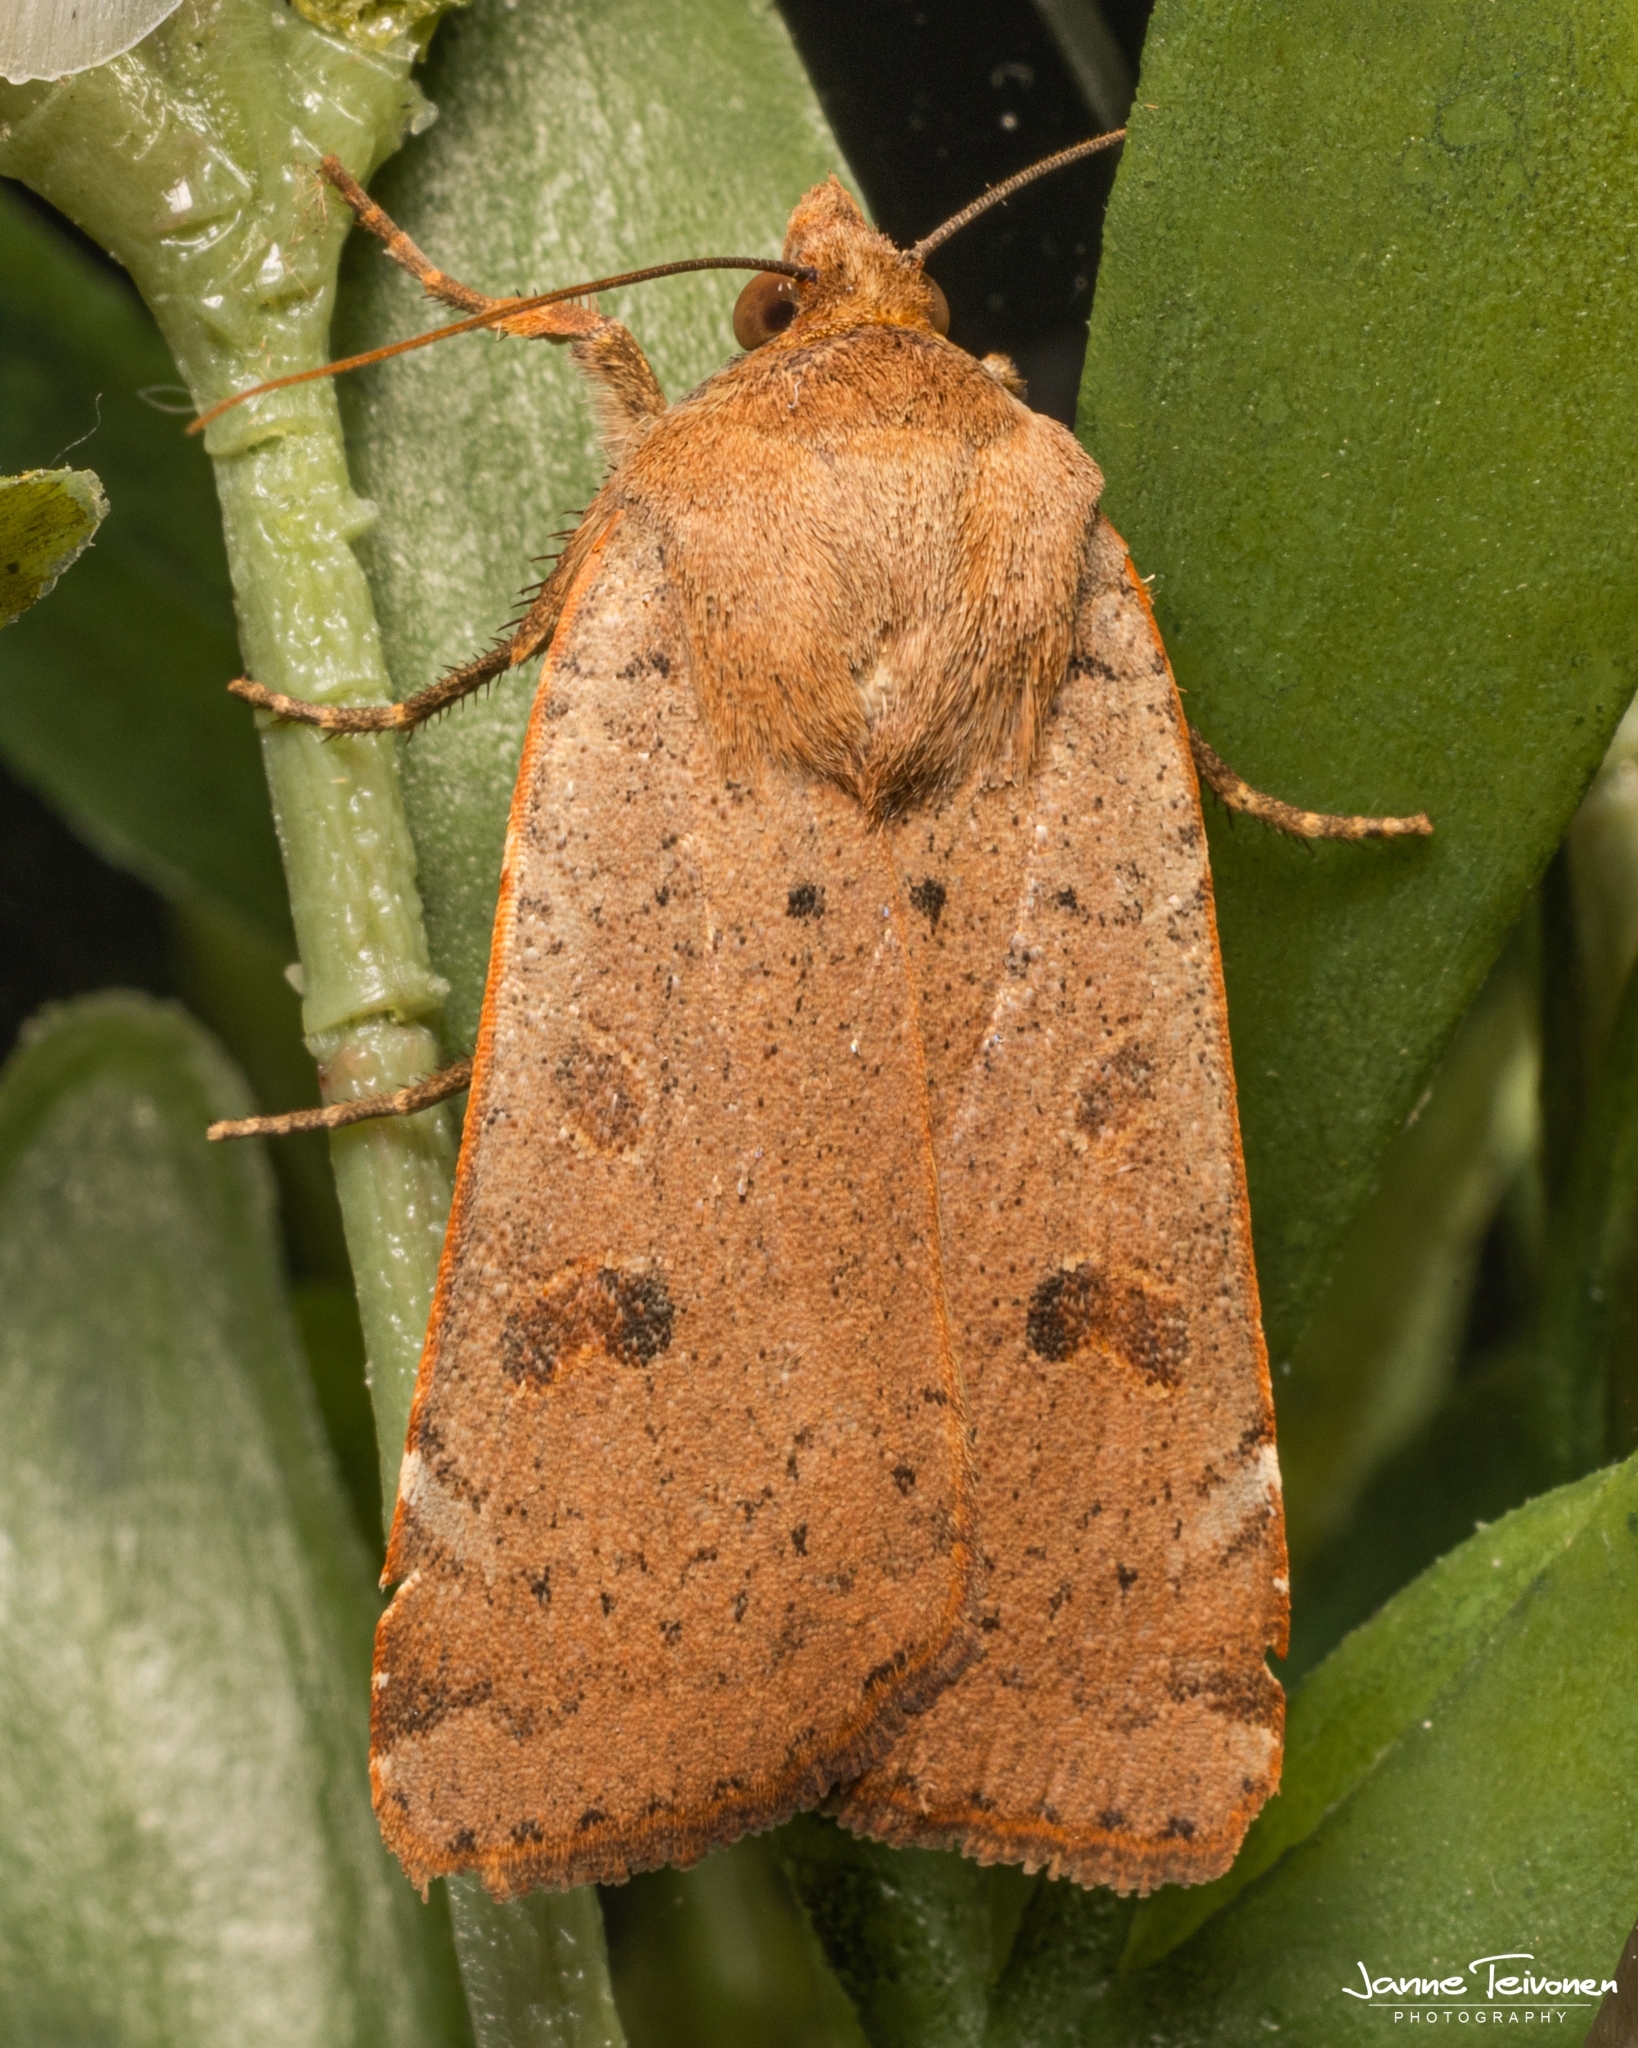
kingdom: Animalia
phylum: Arthropoda
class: Insecta
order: Lepidoptera
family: Noctuidae
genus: Noctua
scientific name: Noctua comes
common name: Lesser yellow underwing
